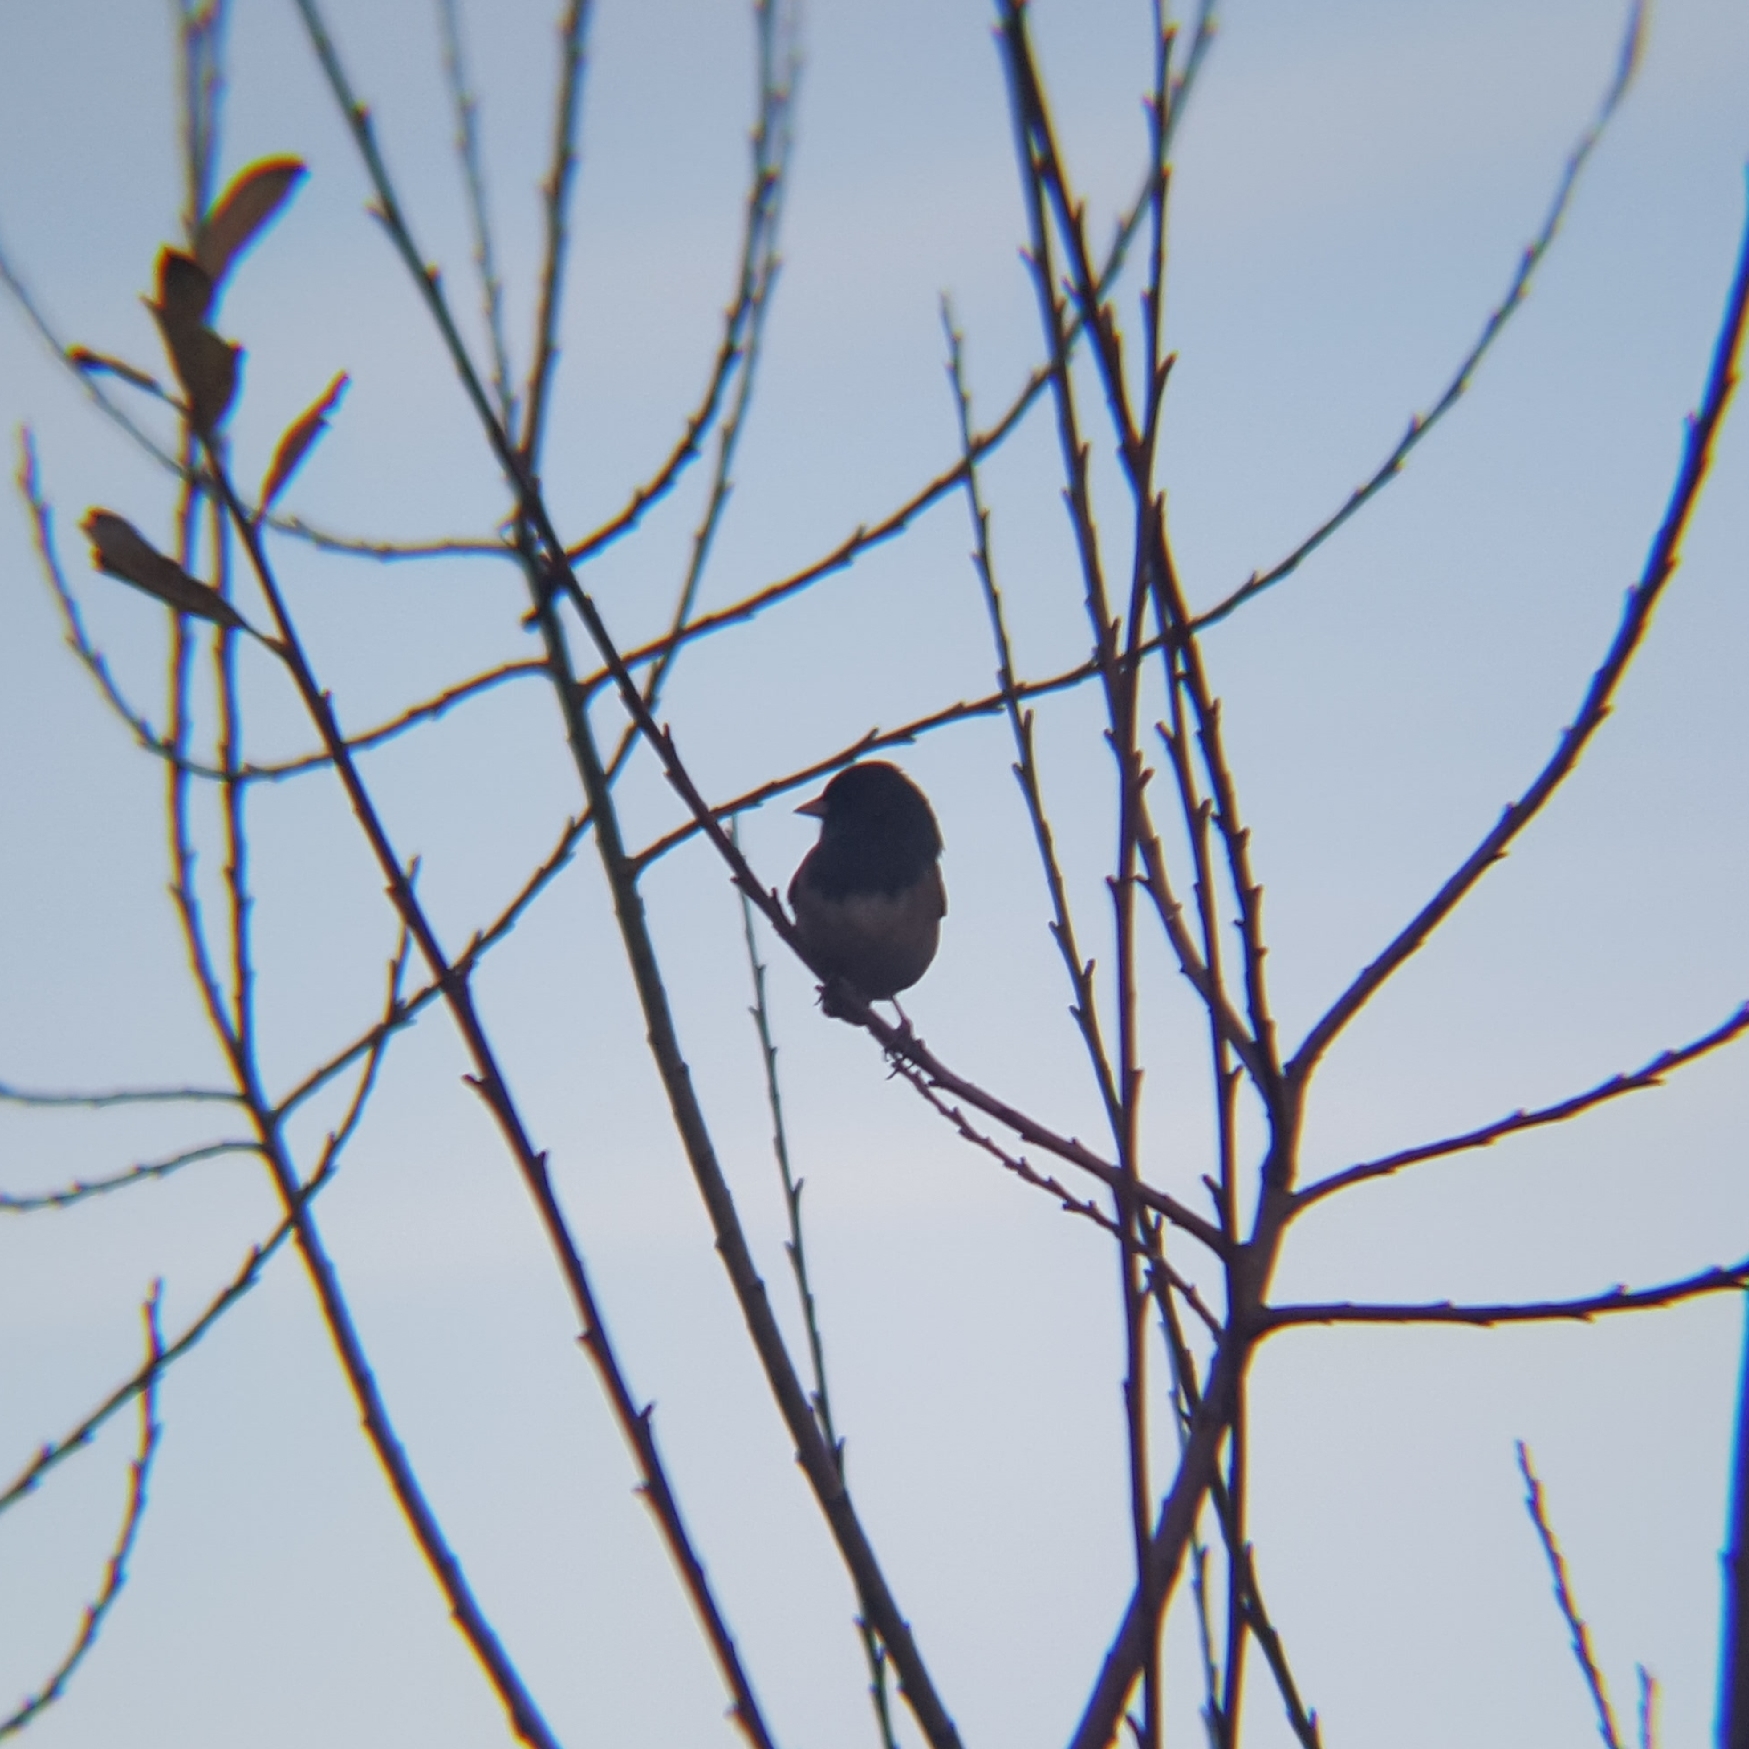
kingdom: Animalia
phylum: Chordata
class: Aves
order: Passeriformes
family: Passerellidae
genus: Junco
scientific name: Junco hyemalis
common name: Dark-eyed junco
